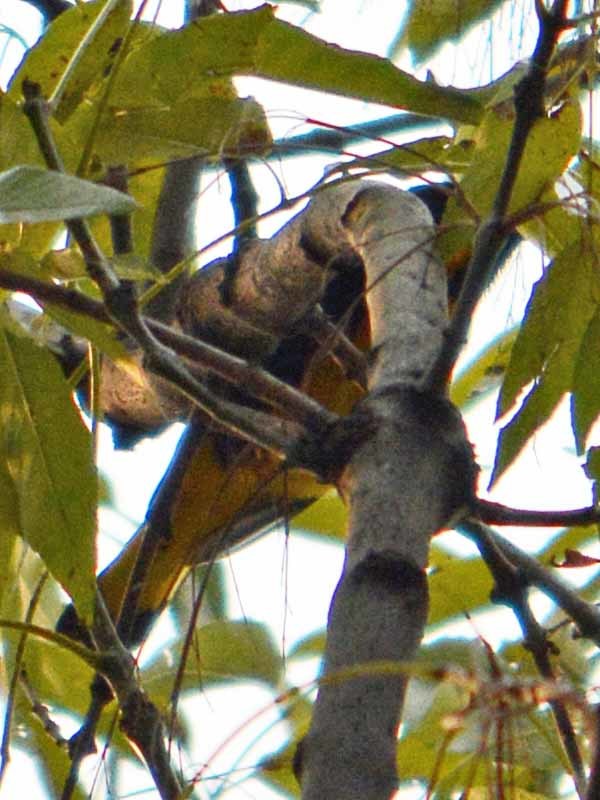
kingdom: Animalia
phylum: Chordata
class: Aves
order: Passeriformes
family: Icteridae
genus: Icterus
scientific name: Icterus abeillei
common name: Black-backed oriole
